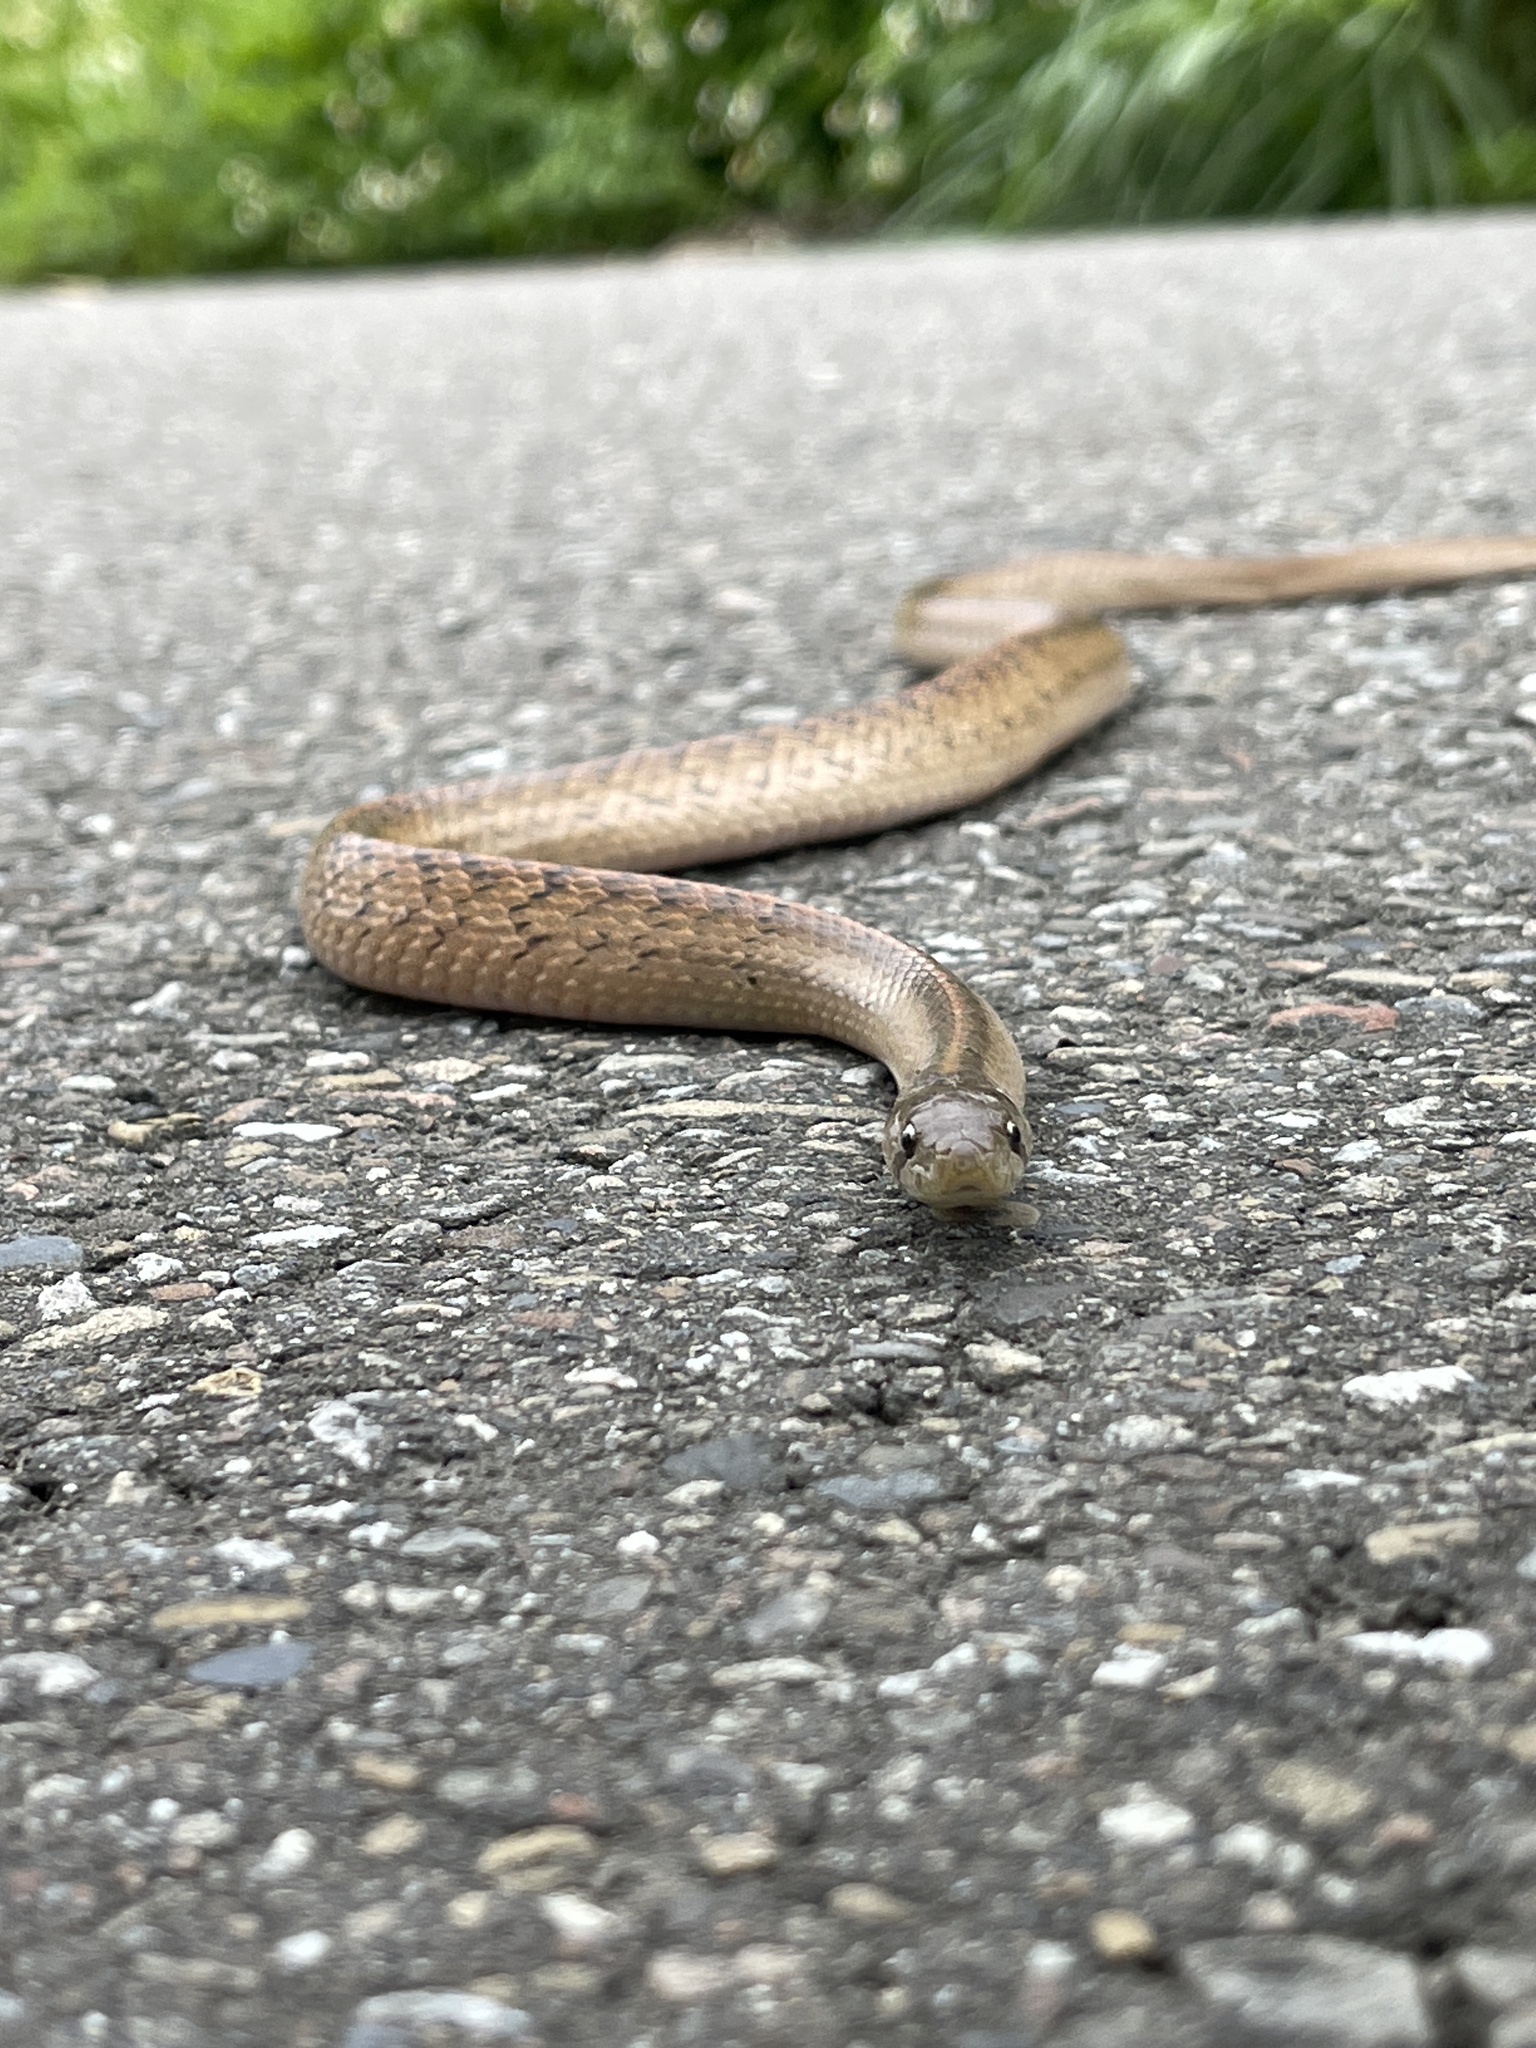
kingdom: Animalia
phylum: Chordata
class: Squamata
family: Colubridae
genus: Oligodon
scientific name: Oligodon formosanus
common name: Formosa kukri snake
